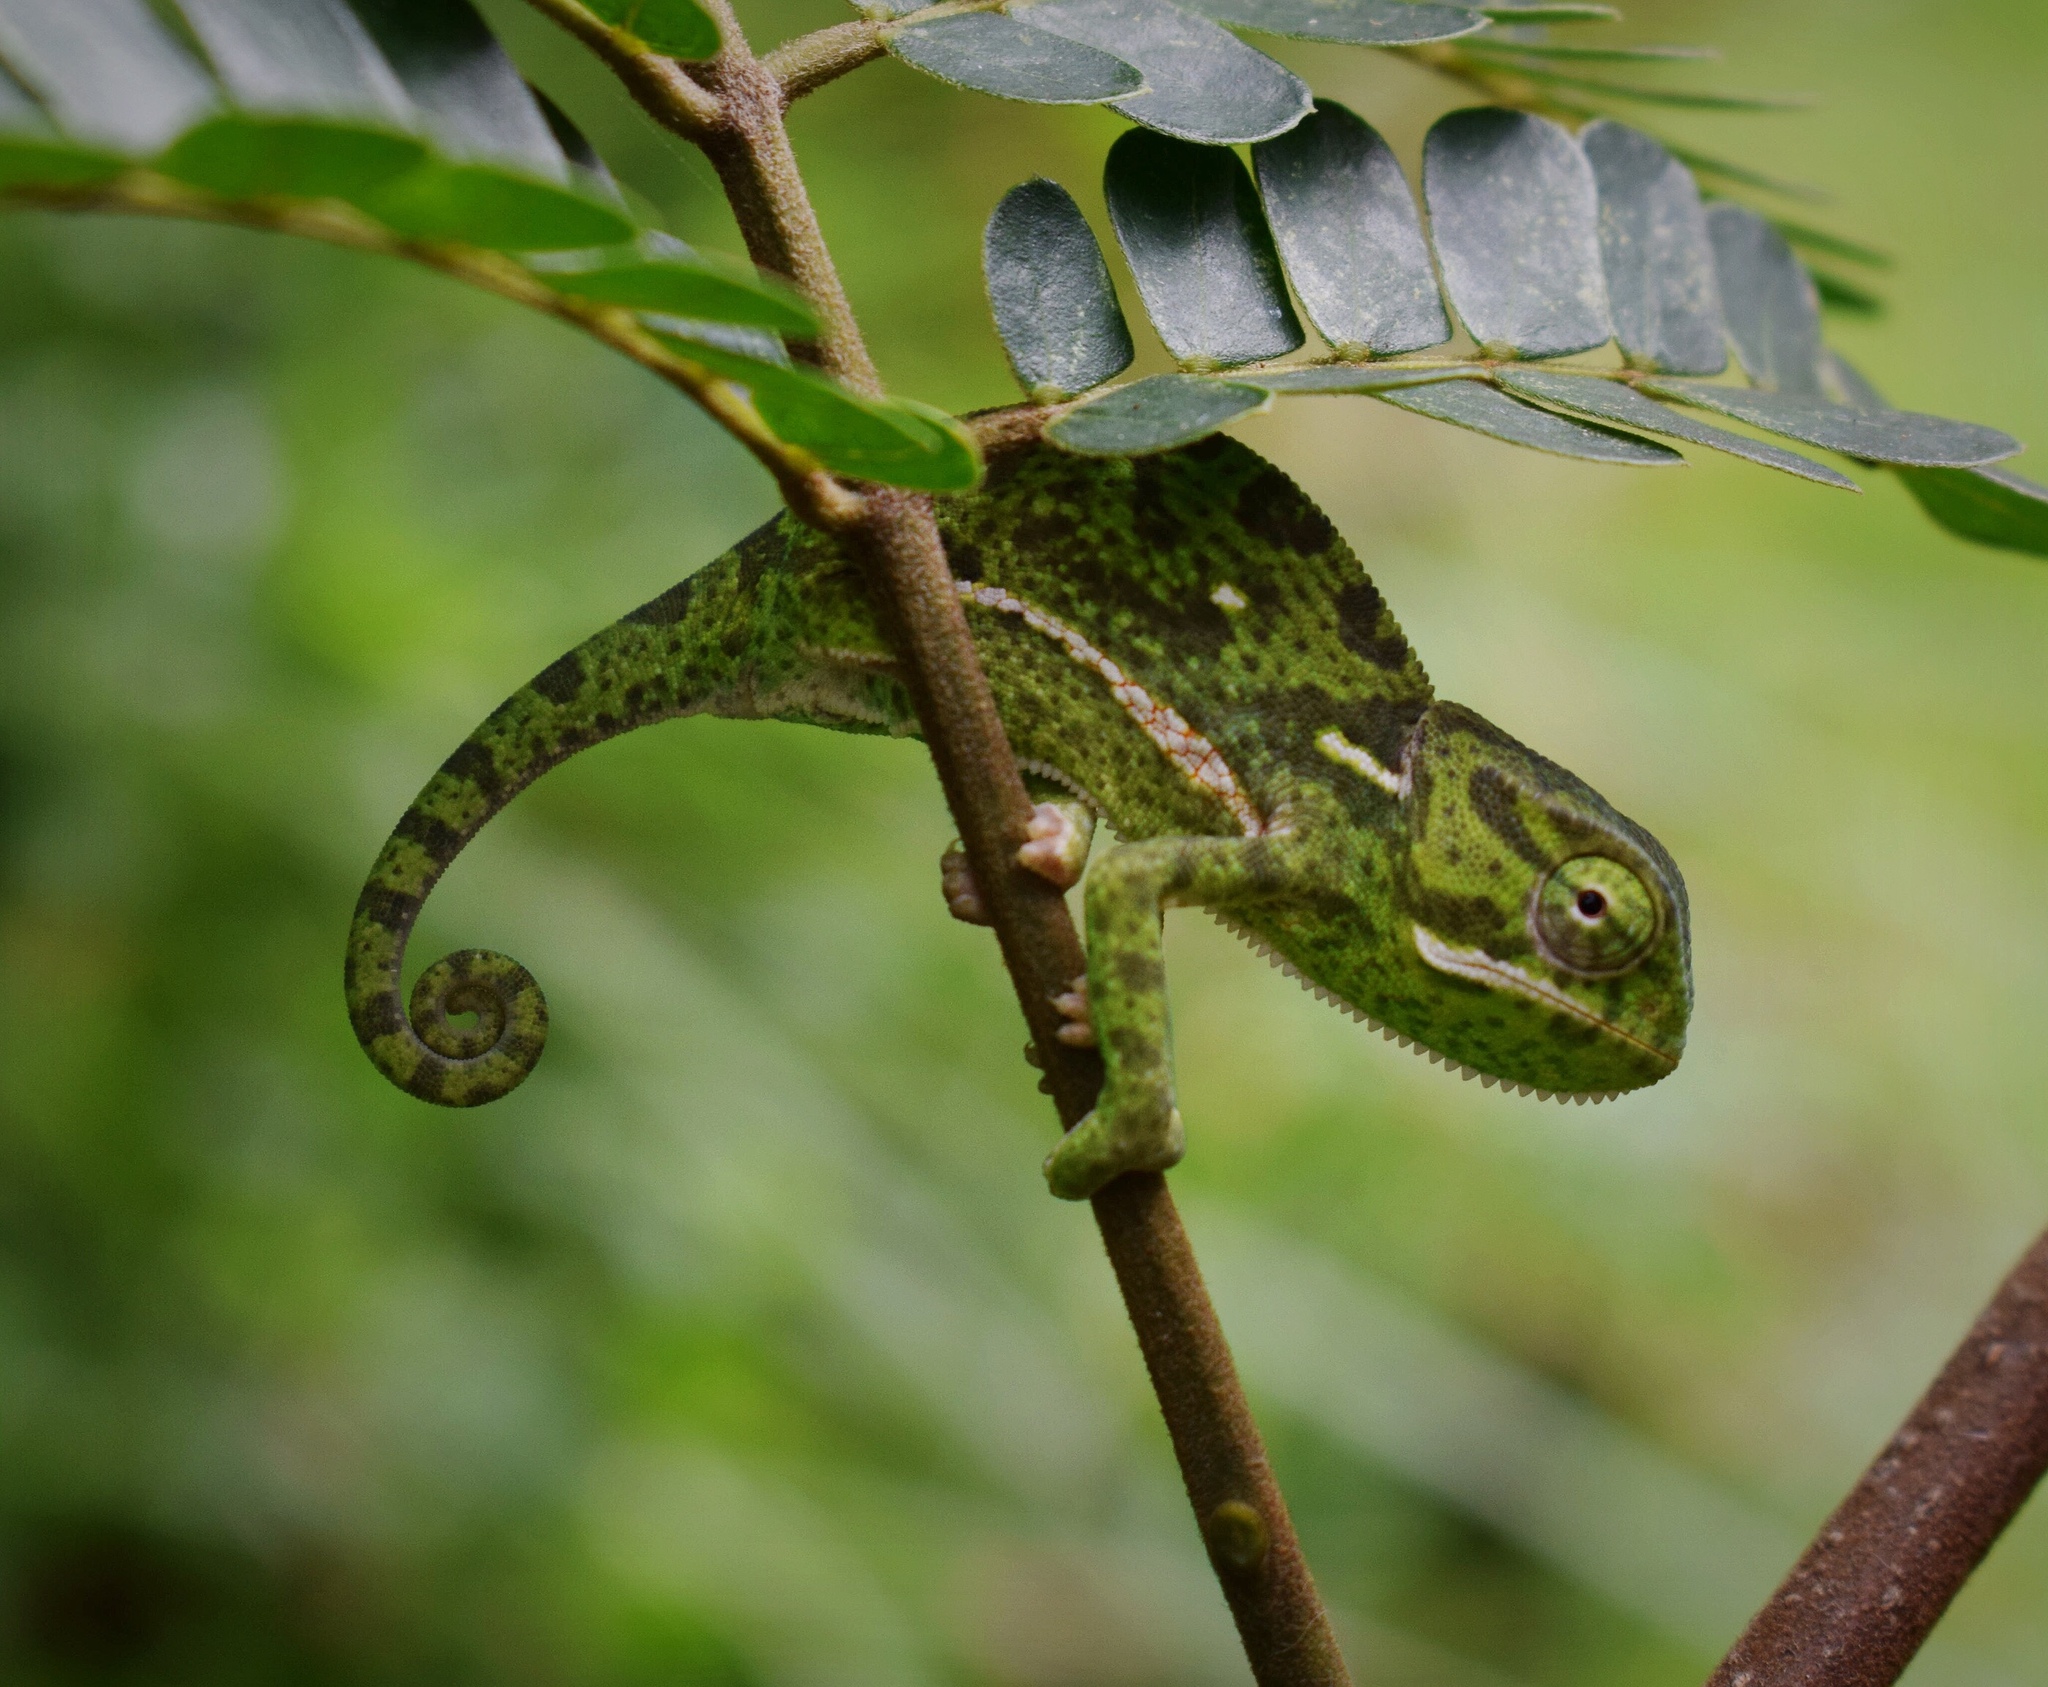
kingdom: Animalia
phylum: Chordata
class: Squamata
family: Chamaeleonidae
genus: Chamaeleo
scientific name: Chamaeleo dilepis
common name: Flapneck chameleon
